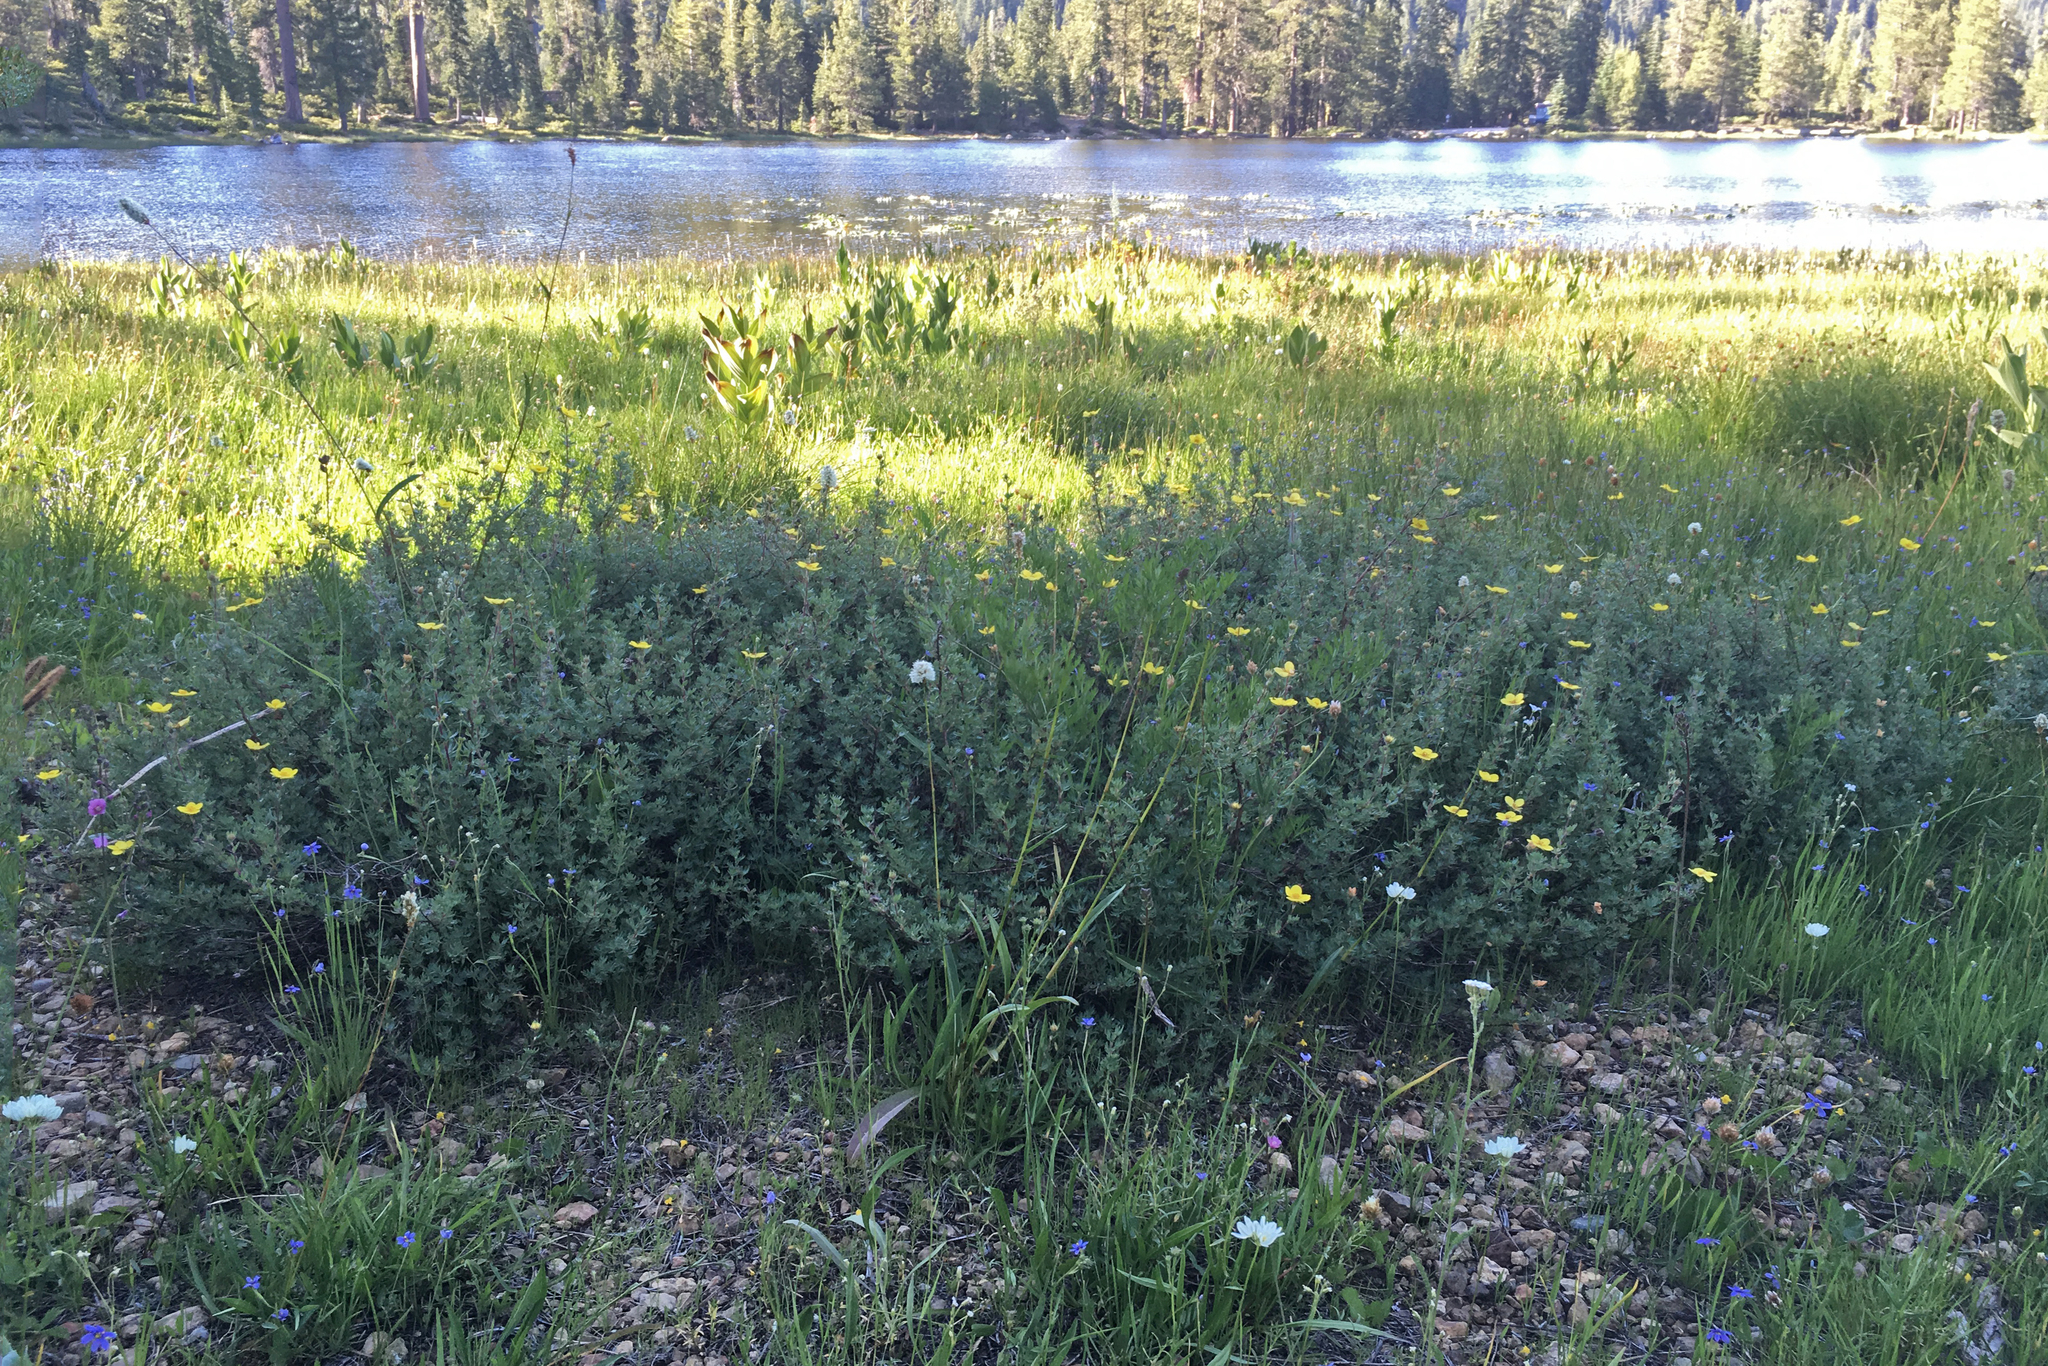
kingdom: Plantae
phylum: Tracheophyta
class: Magnoliopsida
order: Rosales
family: Rosaceae
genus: Dasiphora
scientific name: Dasiphora fruticosa
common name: Shrubby cinquefoil
